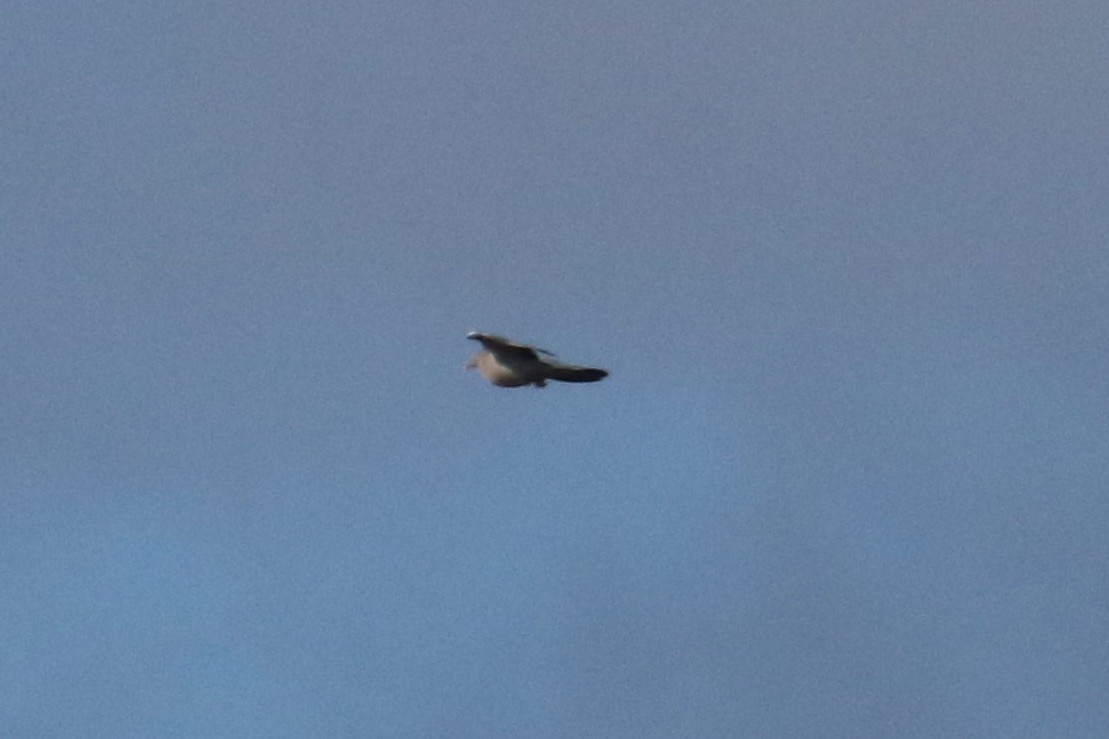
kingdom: Animalia
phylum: Chordata
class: Aves
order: Columbiformes
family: Columbidae
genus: Columba
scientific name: Columba oenas
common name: Stock dove
